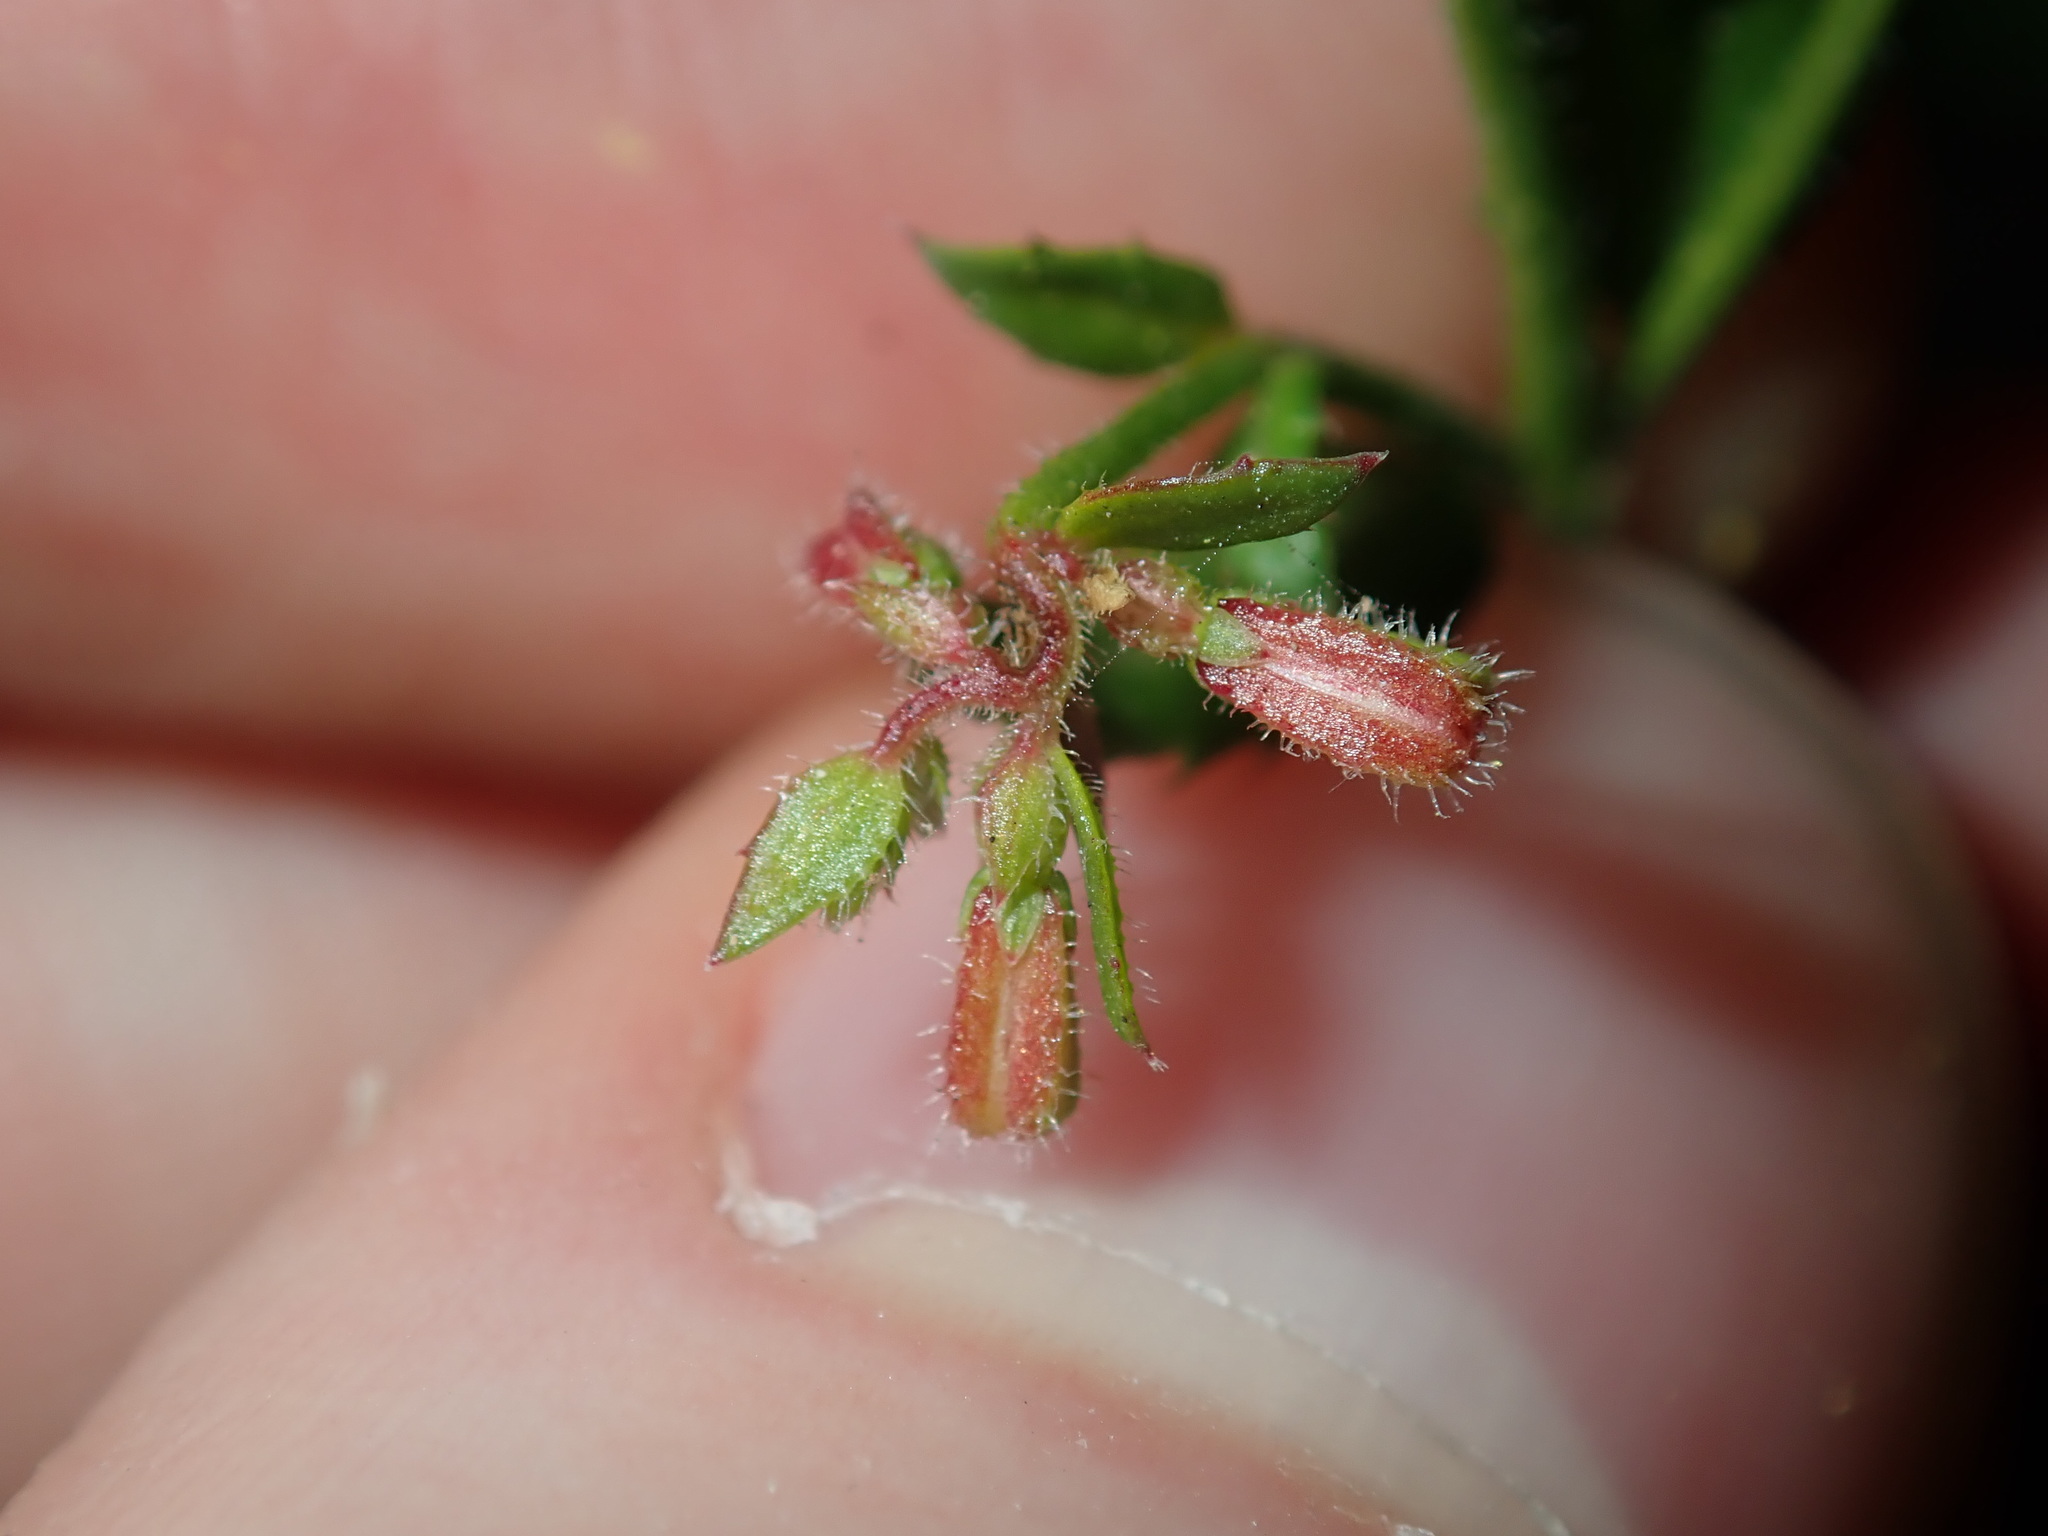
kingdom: Plantae
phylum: Tracheophyta
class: Magnoliopsida
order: Saxifragales
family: Haloragaceae
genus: Gonocarpus
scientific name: Gonocarpus teucrioides
